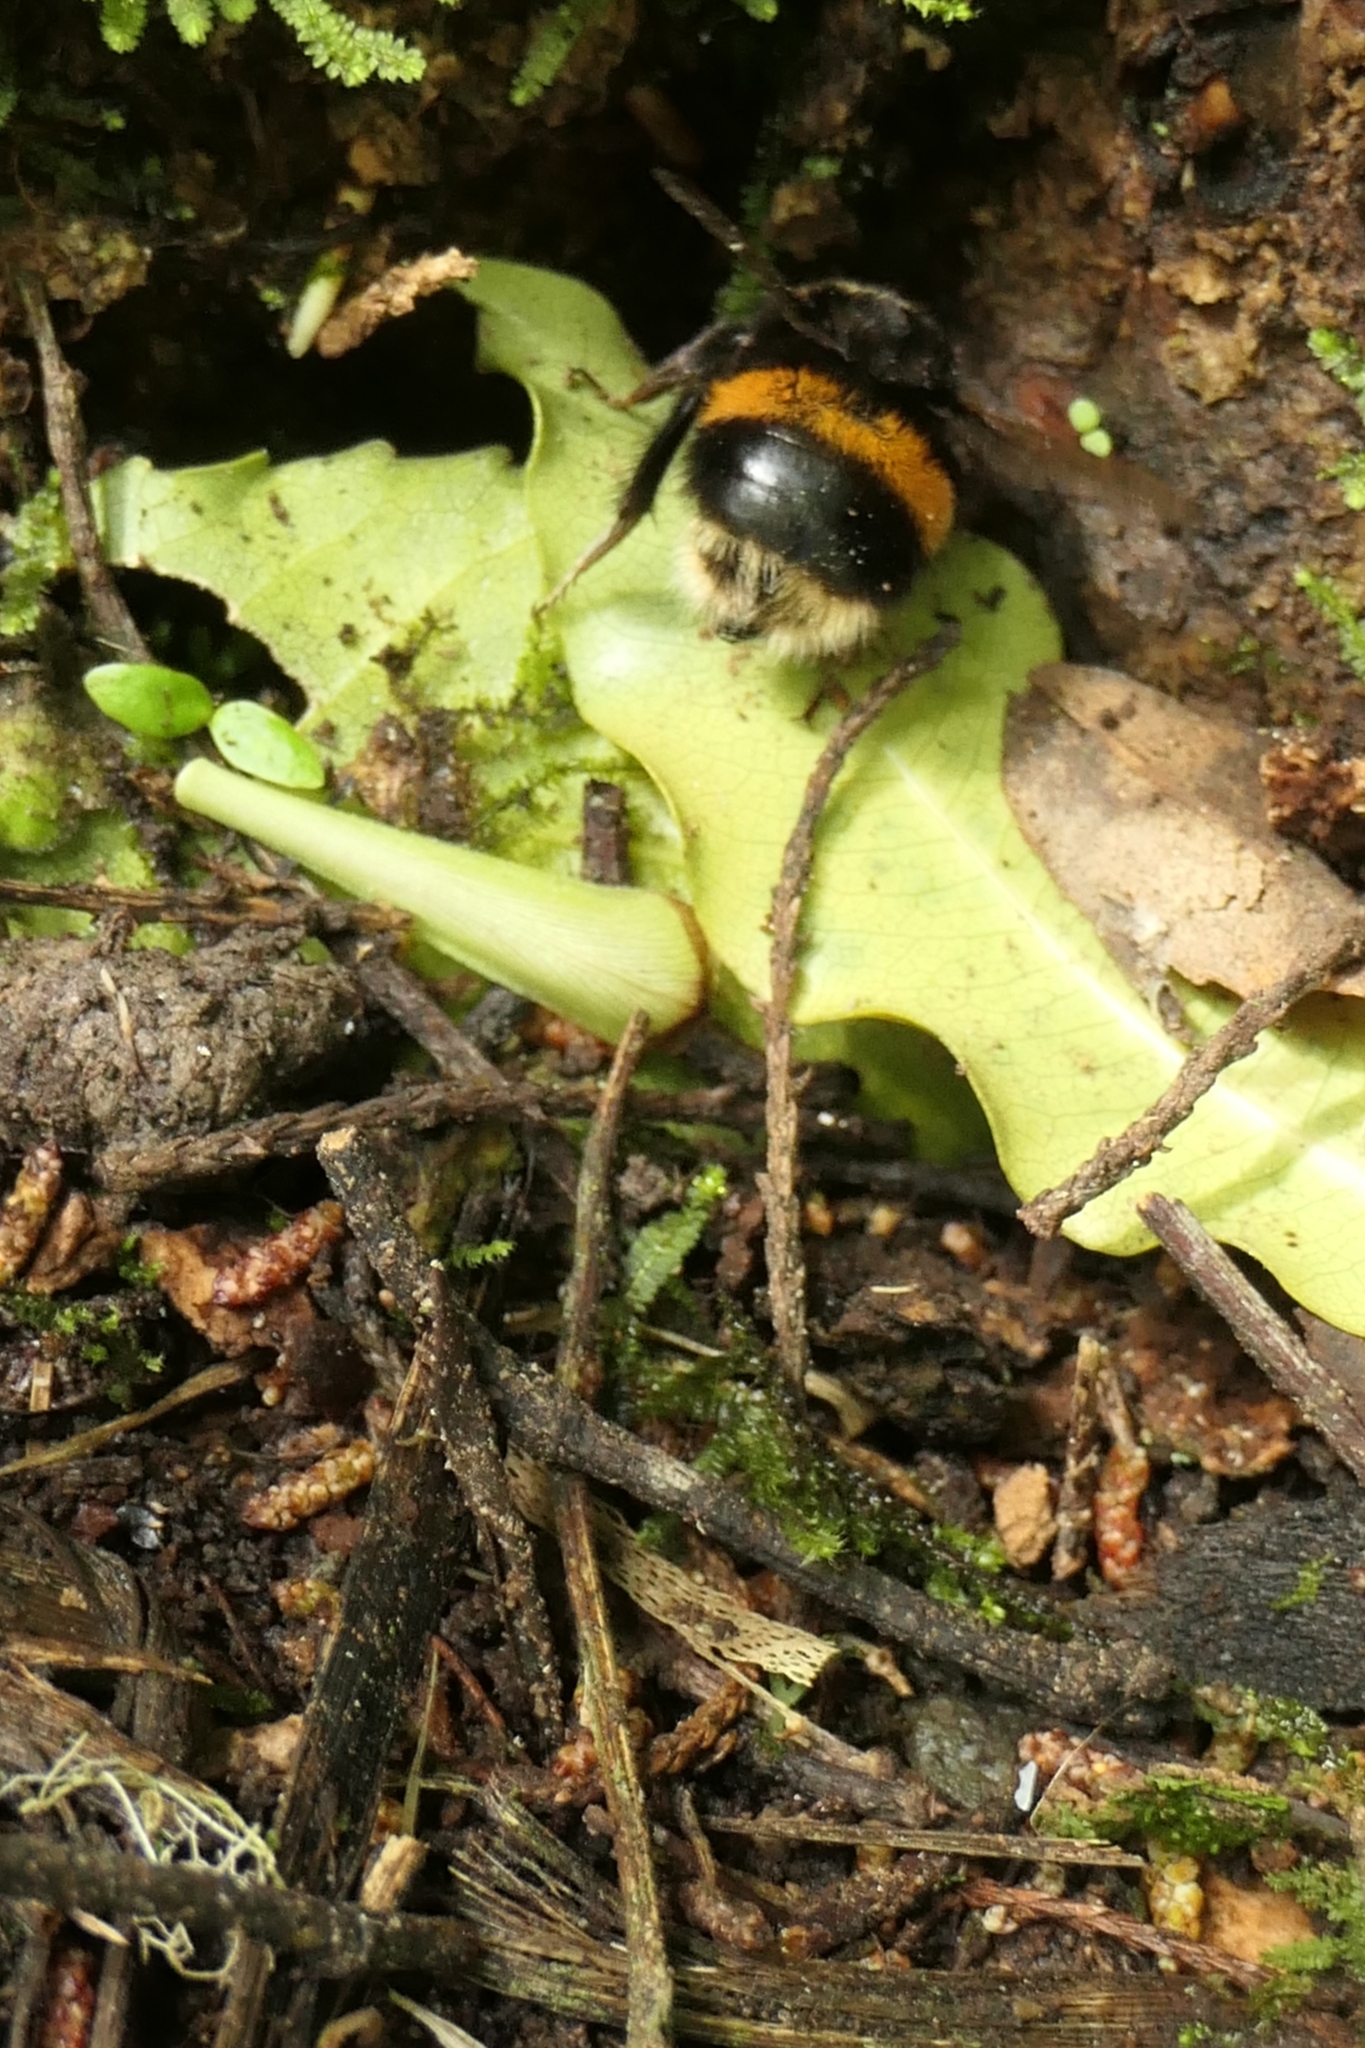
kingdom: Animalia
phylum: Arthropoda
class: Insecta
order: Hymenoptera
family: Apidae
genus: Bombus
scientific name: Bombus terrestris
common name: Buff-tailed bumblebee
